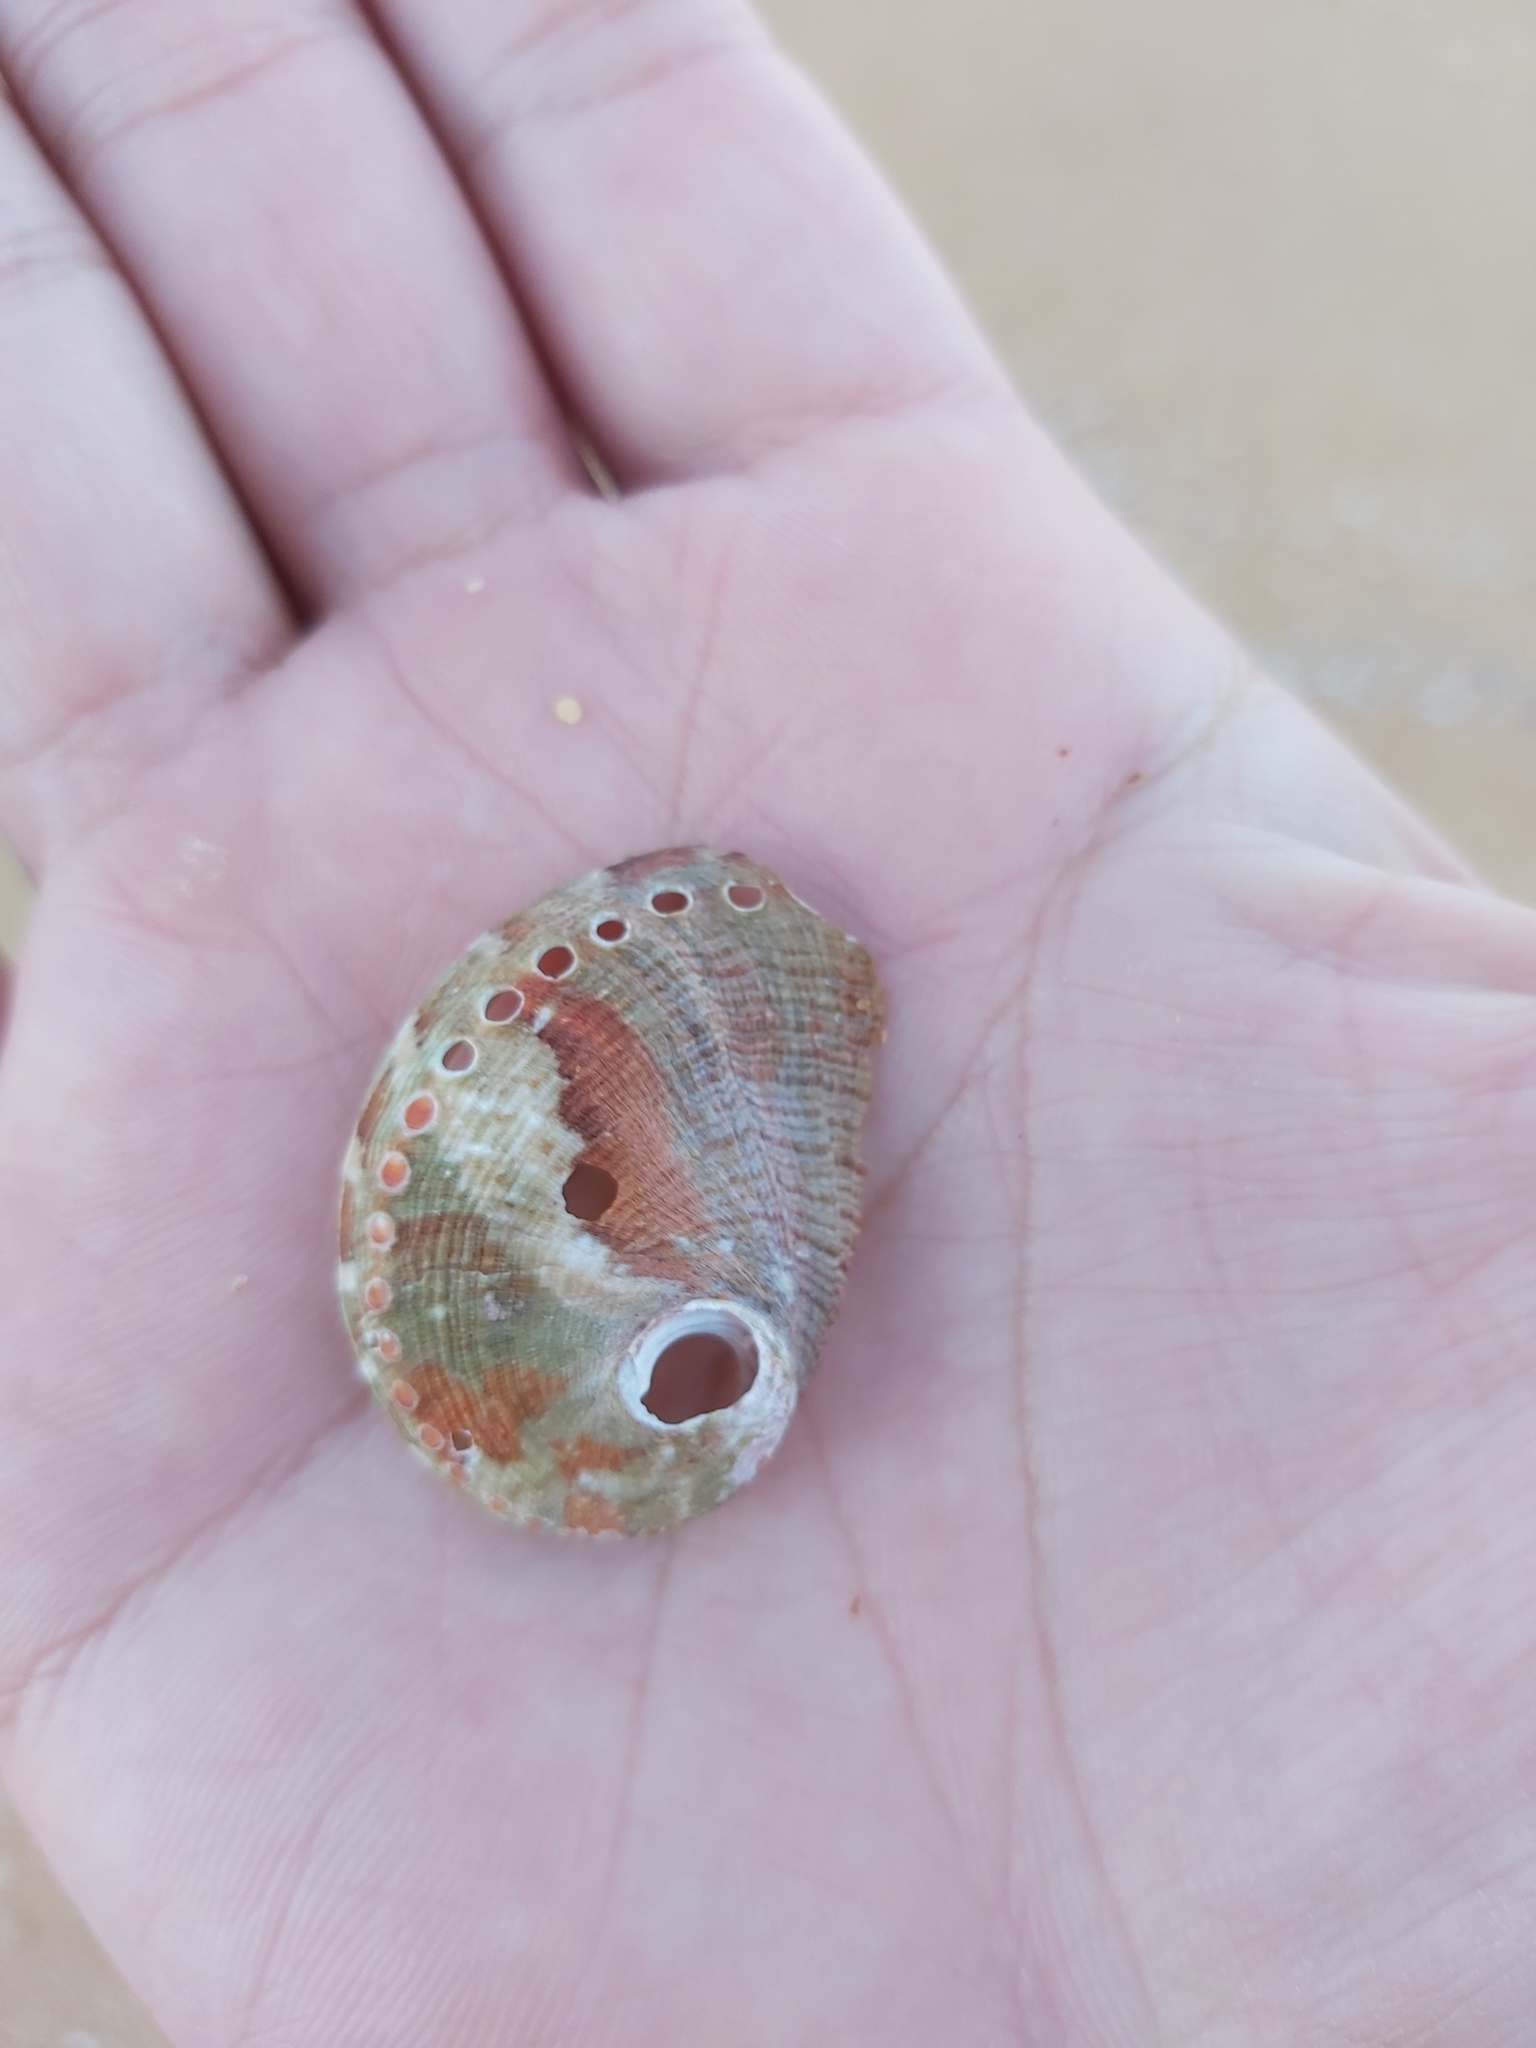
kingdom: Animalia
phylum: Mollusca
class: Gastropoda
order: Lepetellida
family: Haliotidae
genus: Haliotis
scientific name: Haliotis coccoradiata
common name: Reddish-rayed abalone
